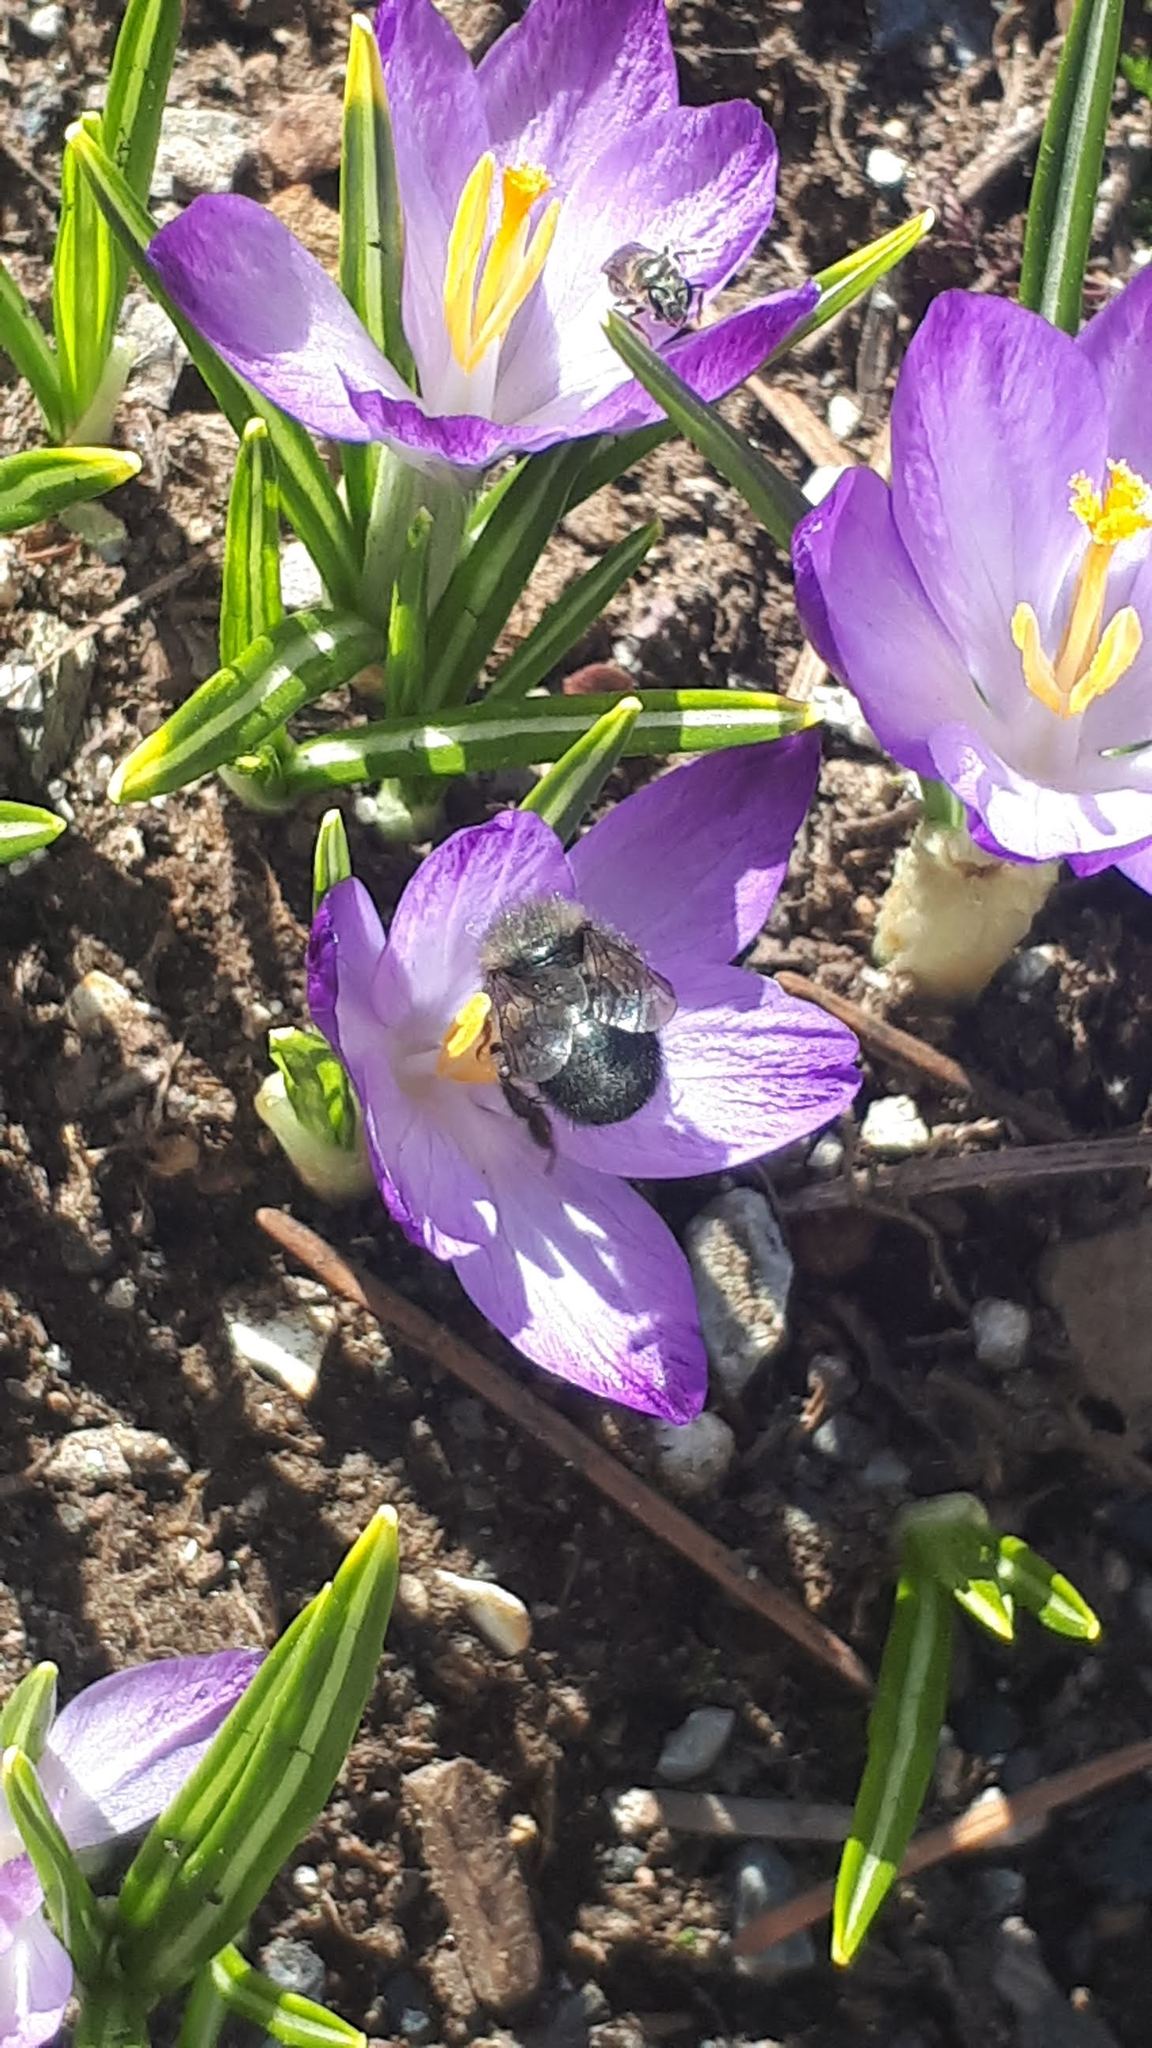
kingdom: Animalia
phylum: Arthropoda
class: Insecta
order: Hymenoptera
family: Megachilidae
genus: Osmia
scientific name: Osmia lignaria
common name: Blue orchard bee
